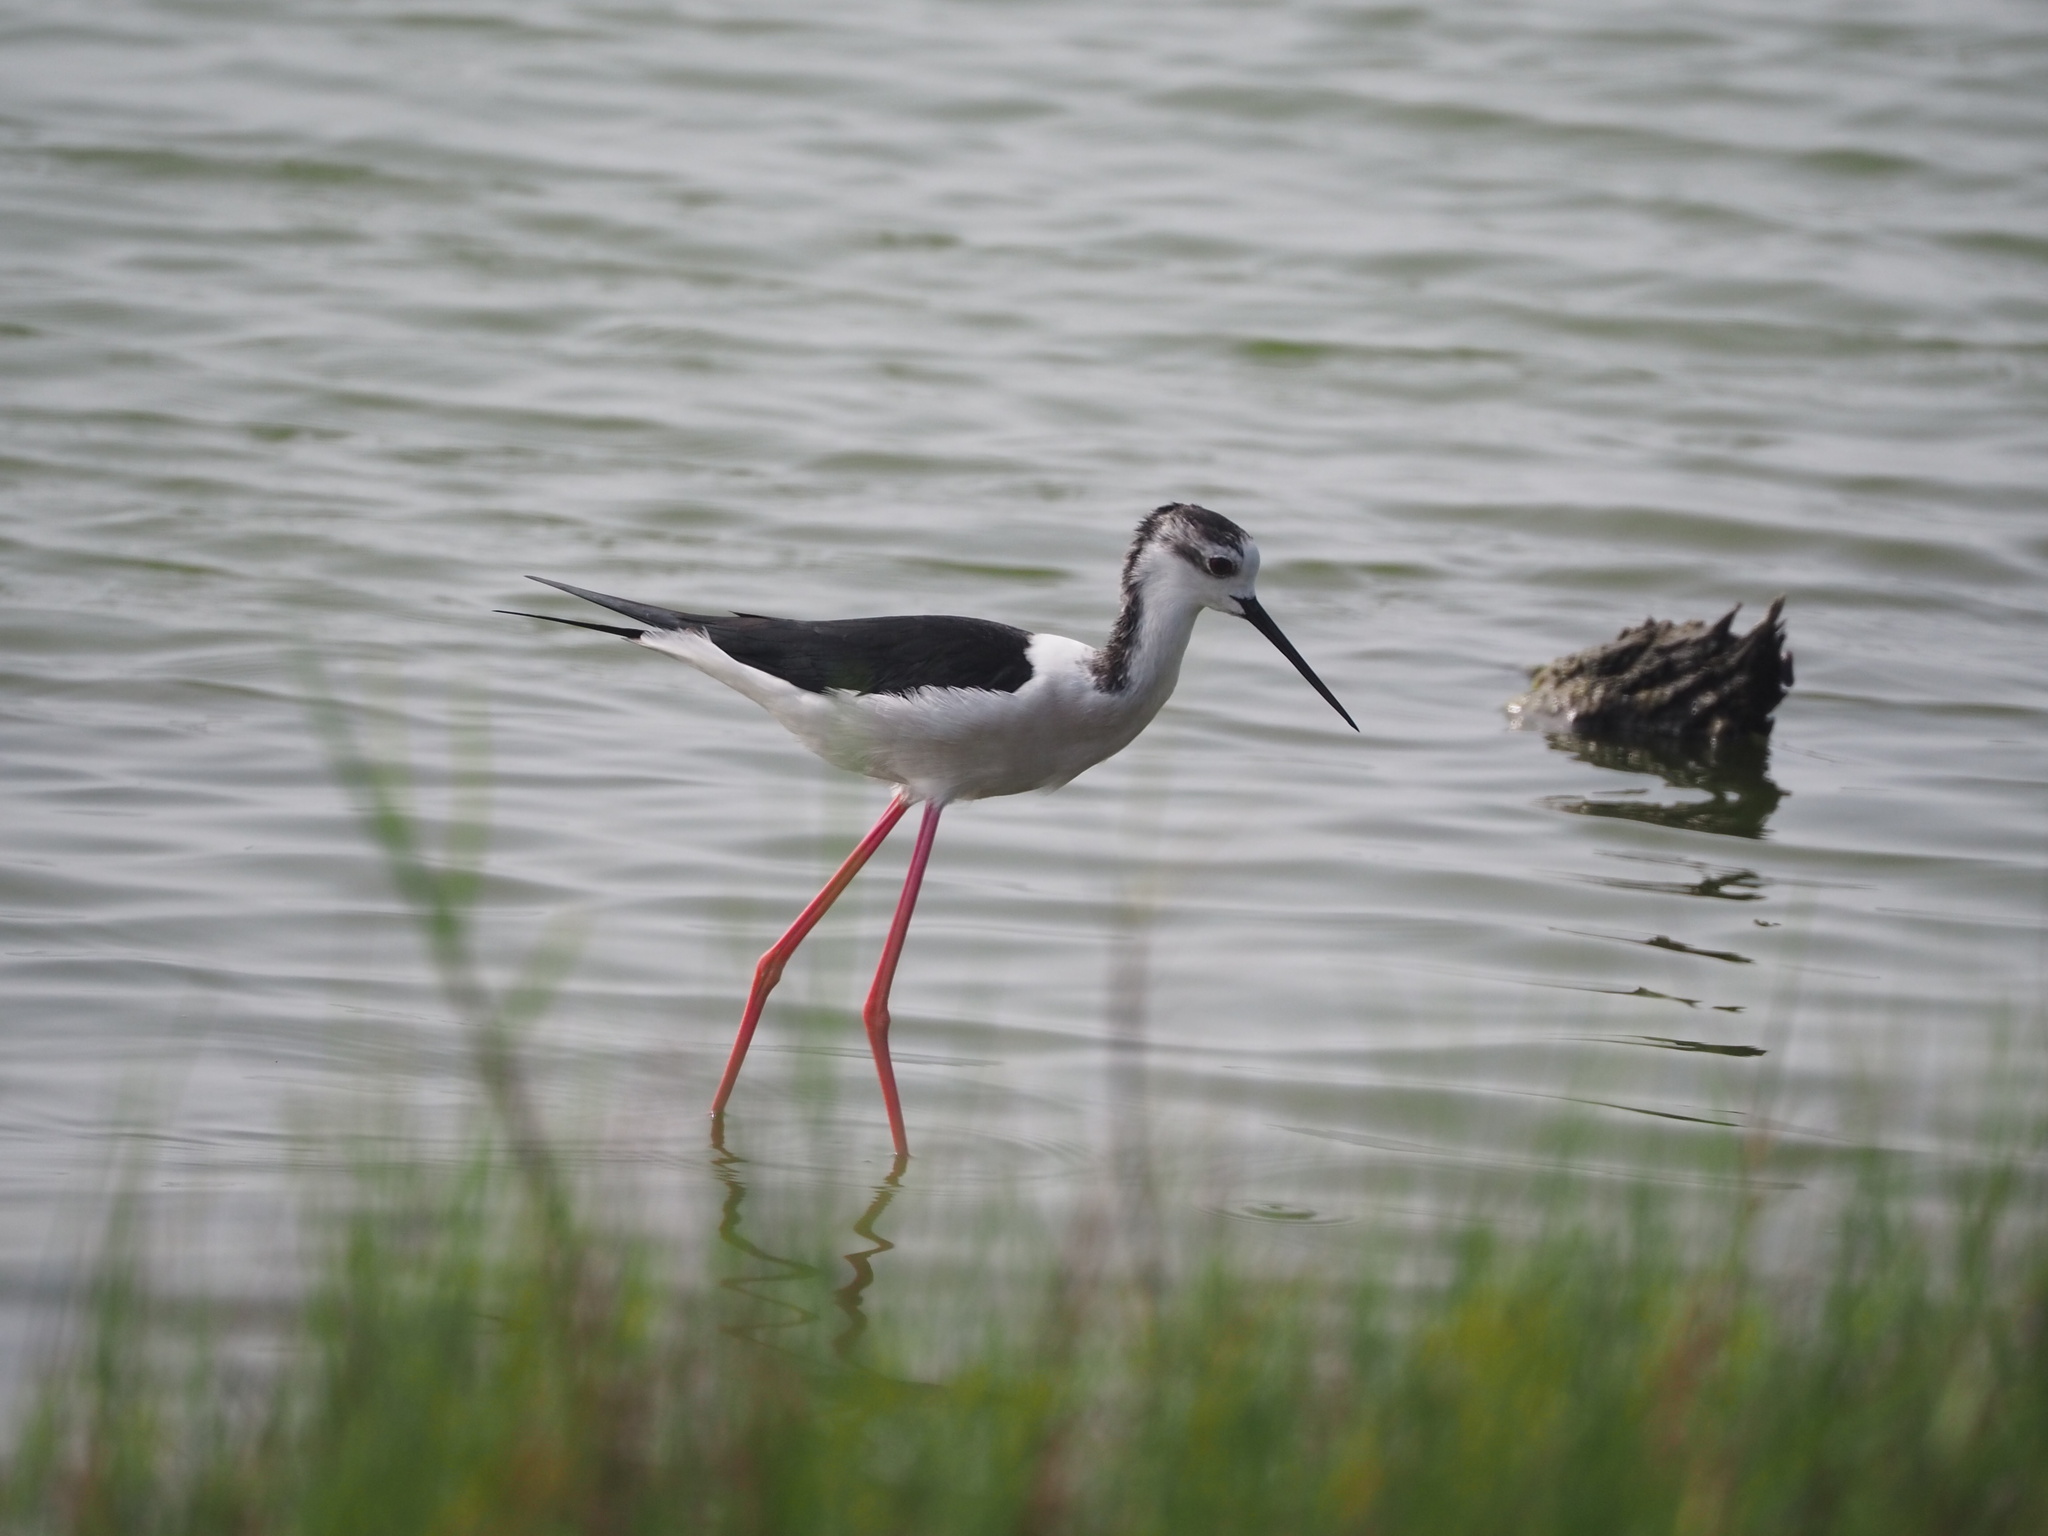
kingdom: Animalia
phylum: Chordata
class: Aves
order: Charadriiformes
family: Recurvirostridae
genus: Himantopus
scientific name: Himantopus himantopus
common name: Black-winged stilt
